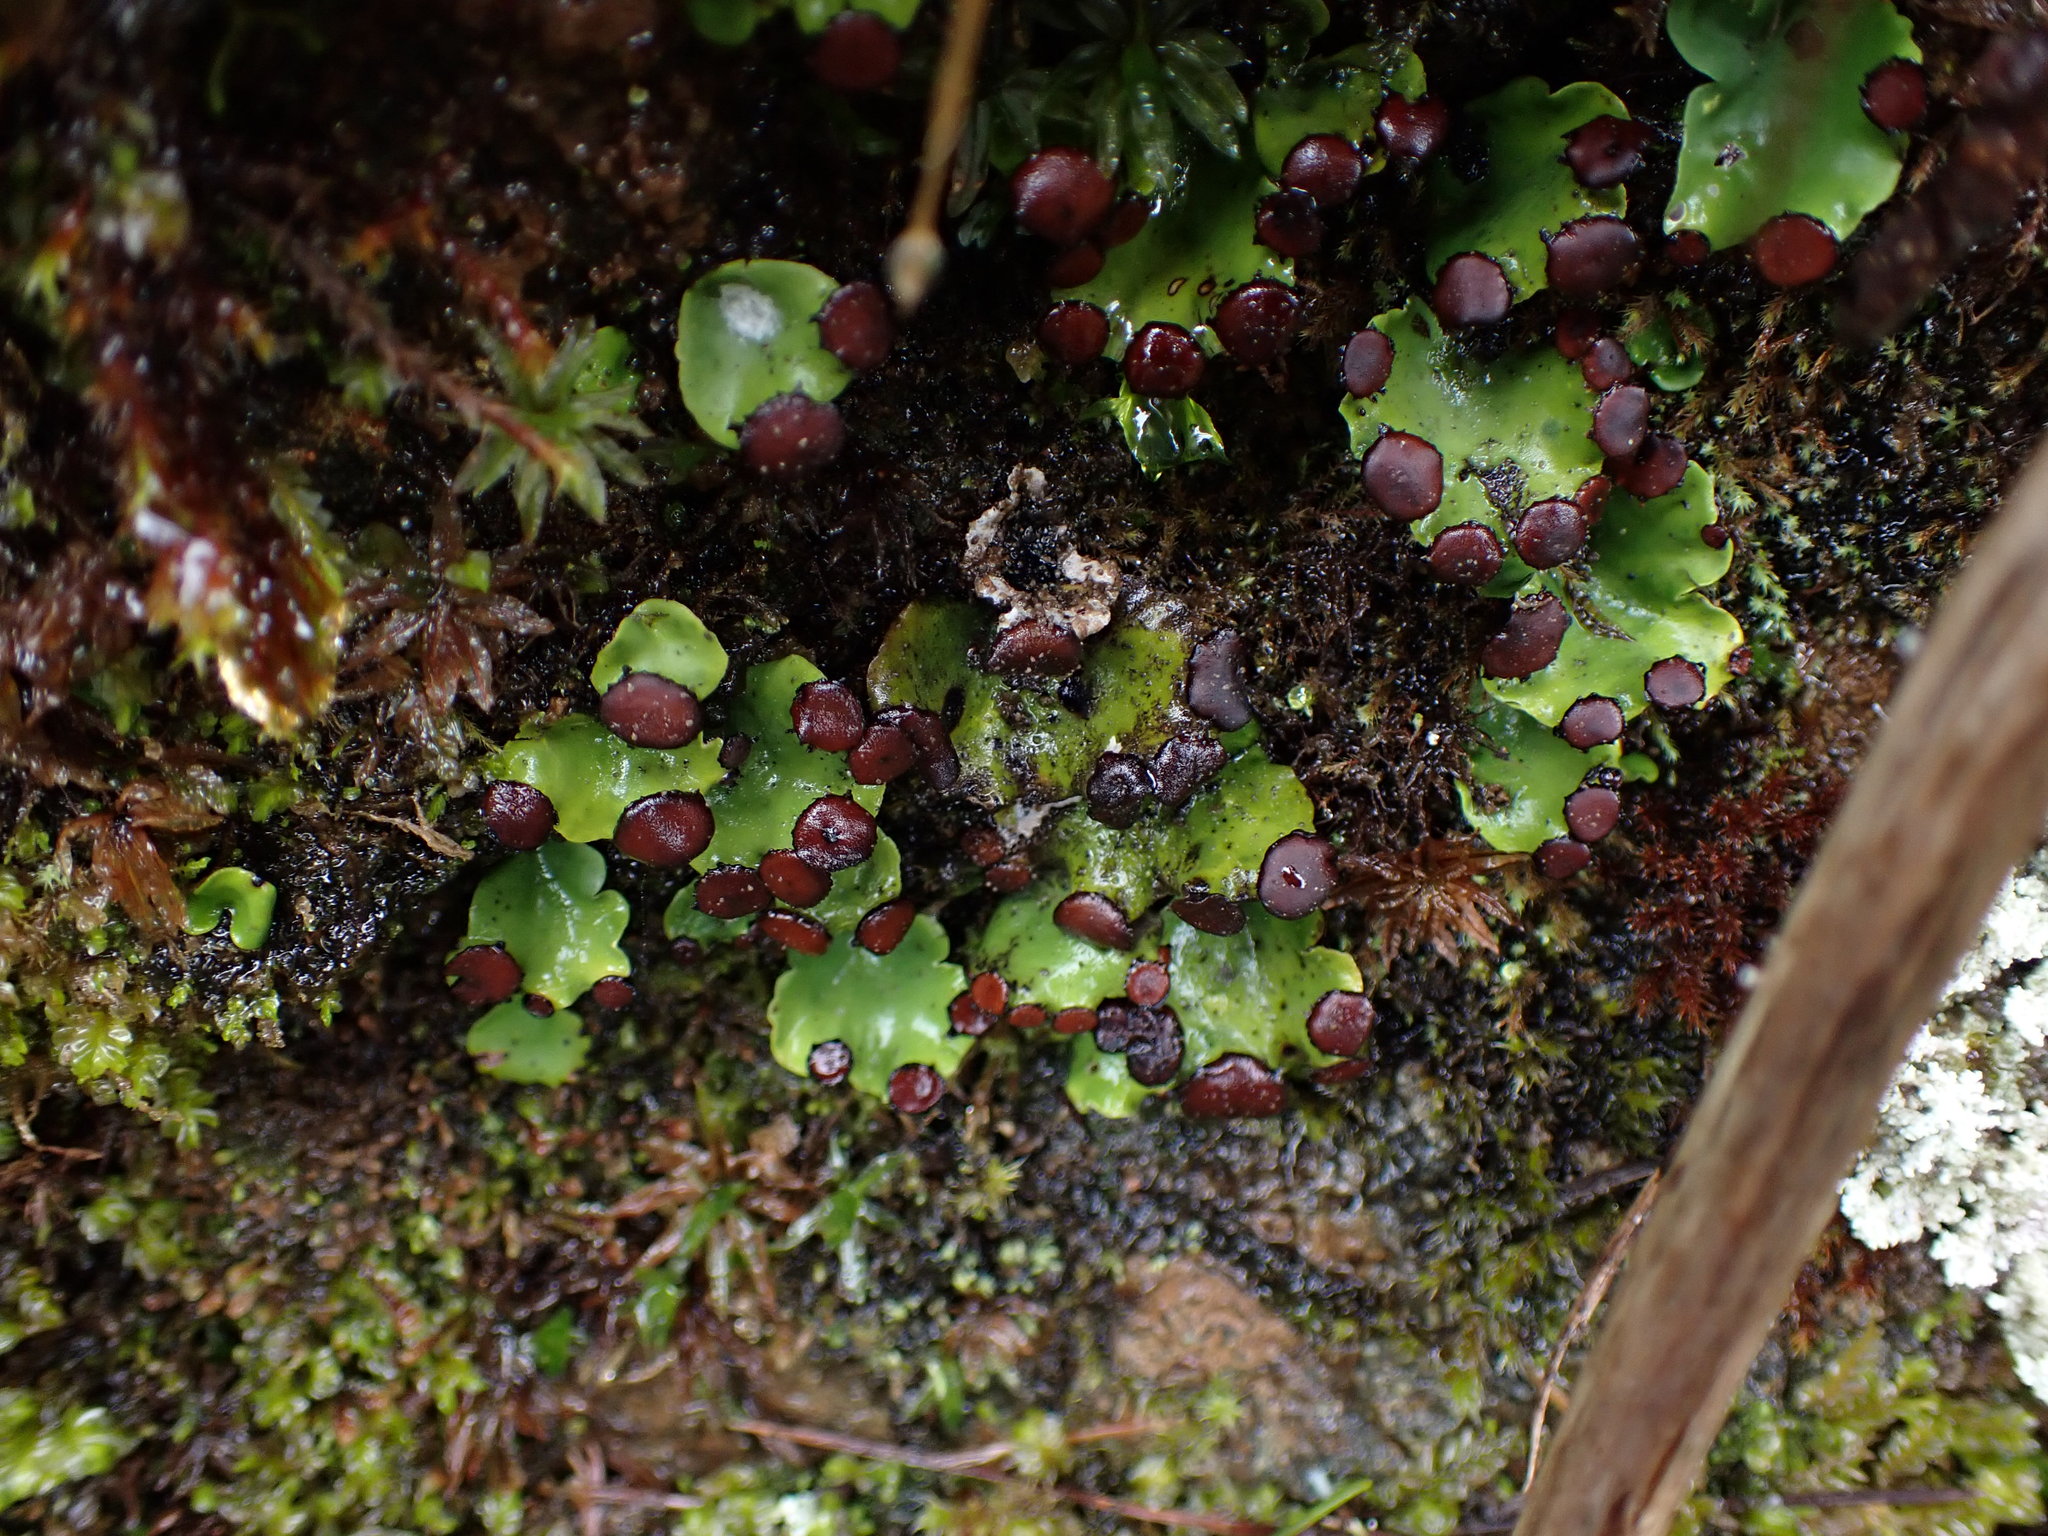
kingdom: Fungi
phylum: Ascomycota
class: Lecanoromycetes
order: Peltigerales
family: Peltigeraceae
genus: Peltigera
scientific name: Peltigera venosa
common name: Pixie gowns lichen
